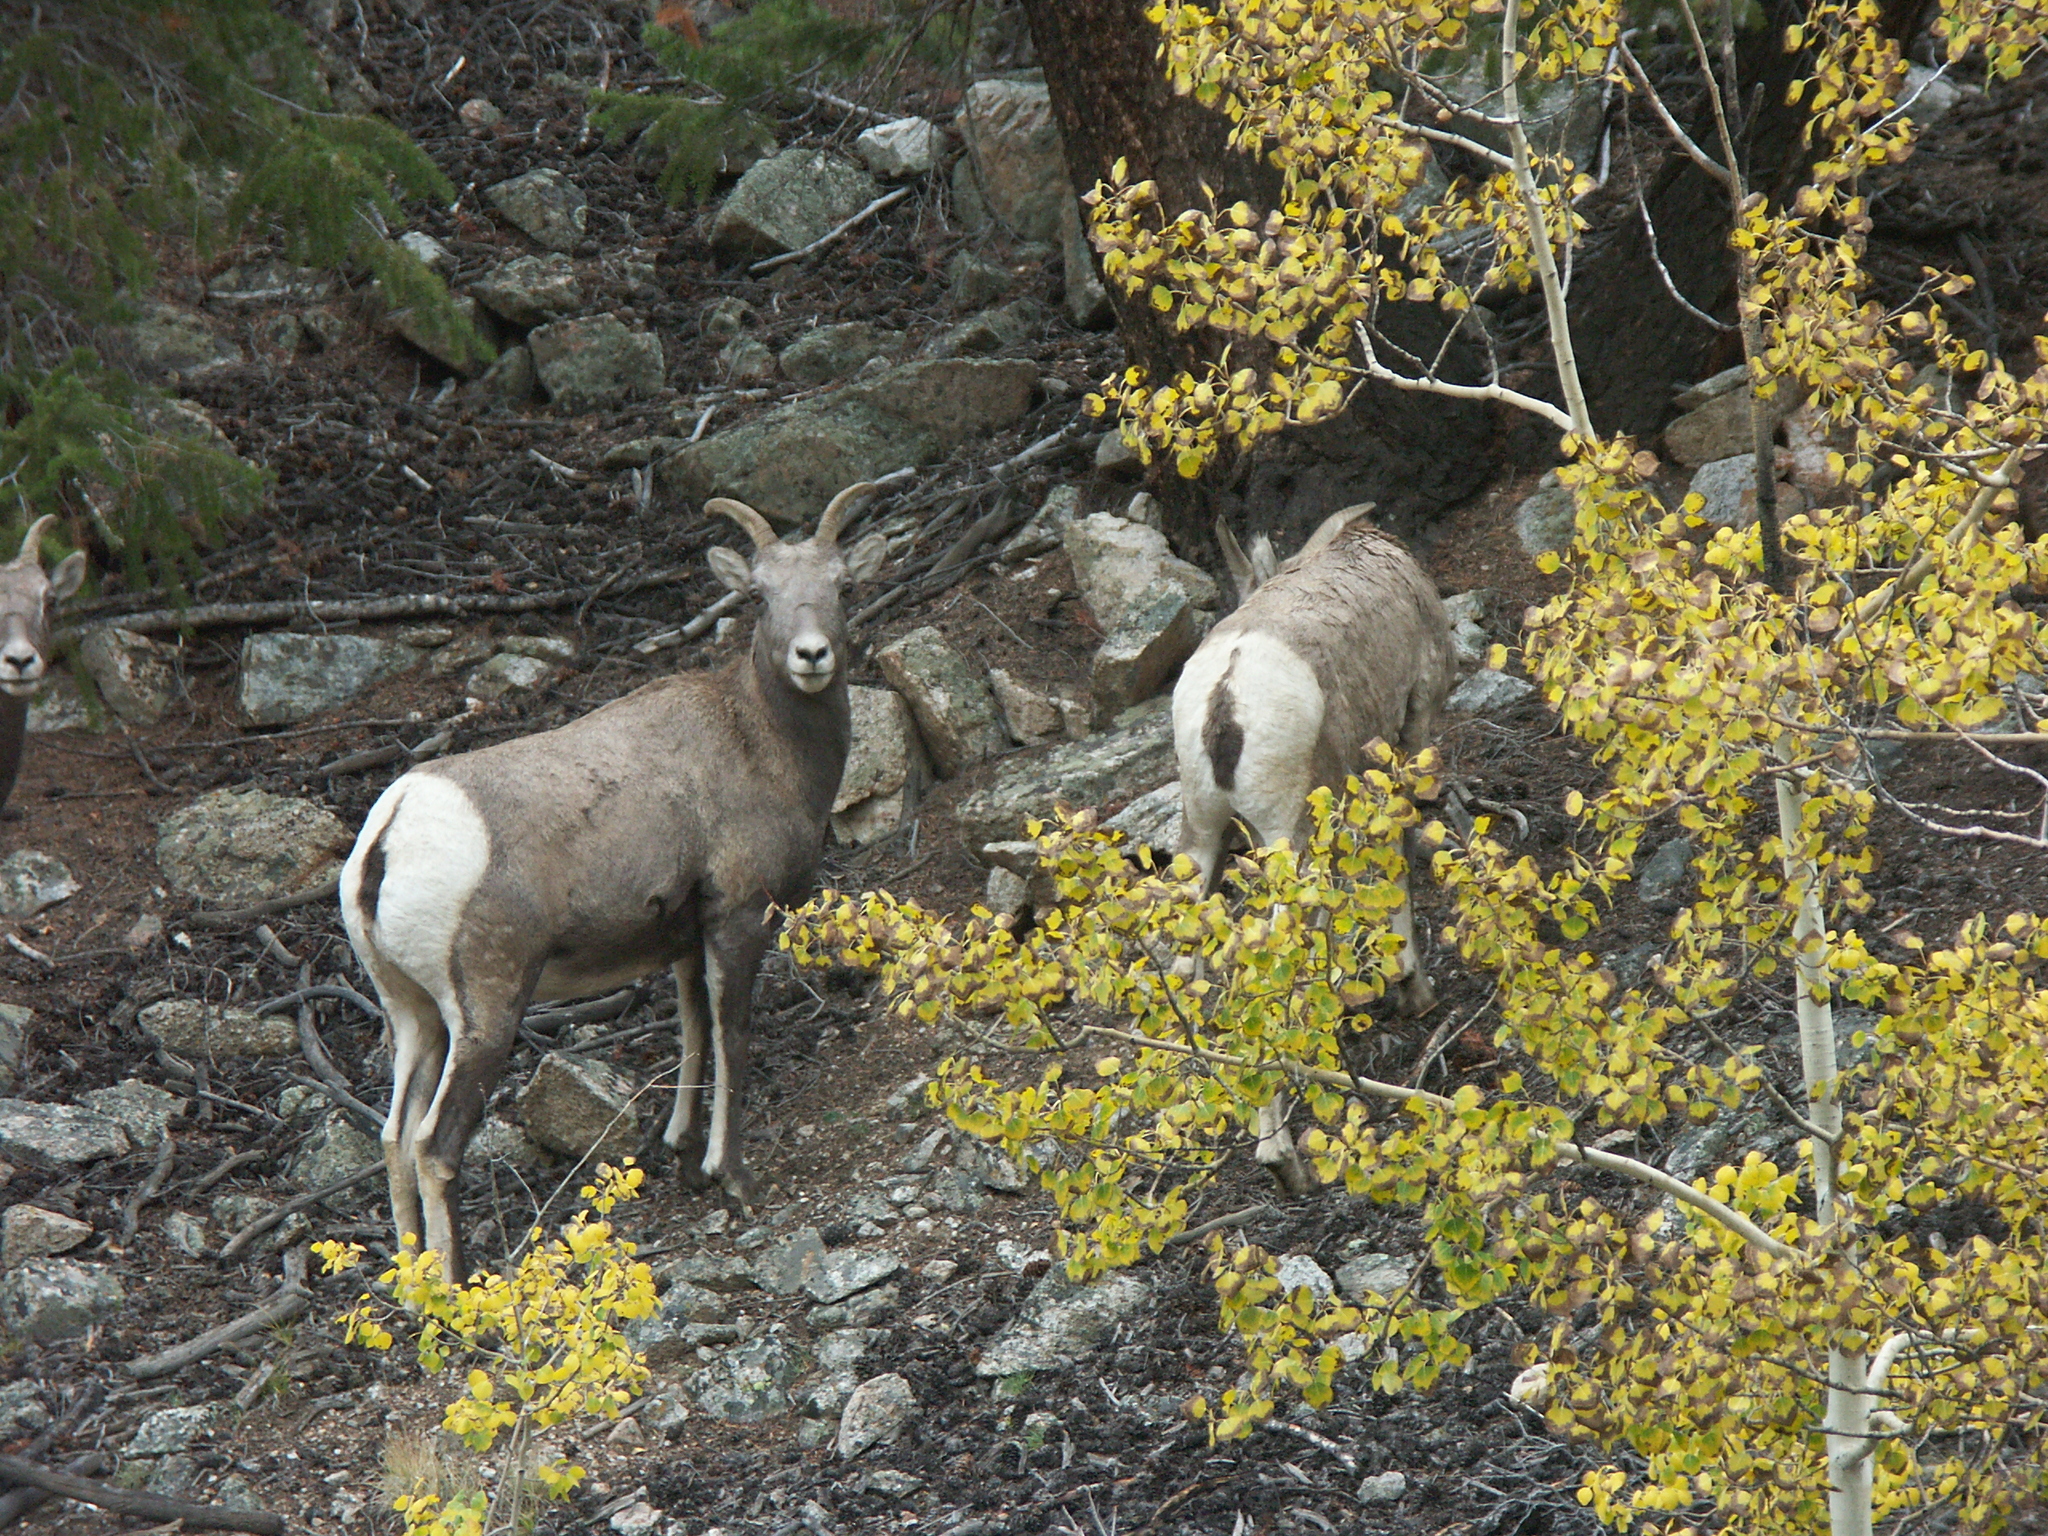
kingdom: Animalia
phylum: Chordata
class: Mammalia
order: Artiodactyla
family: Bovidae
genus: Ovis
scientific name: Ovis canadensis
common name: Bighorn sheep
